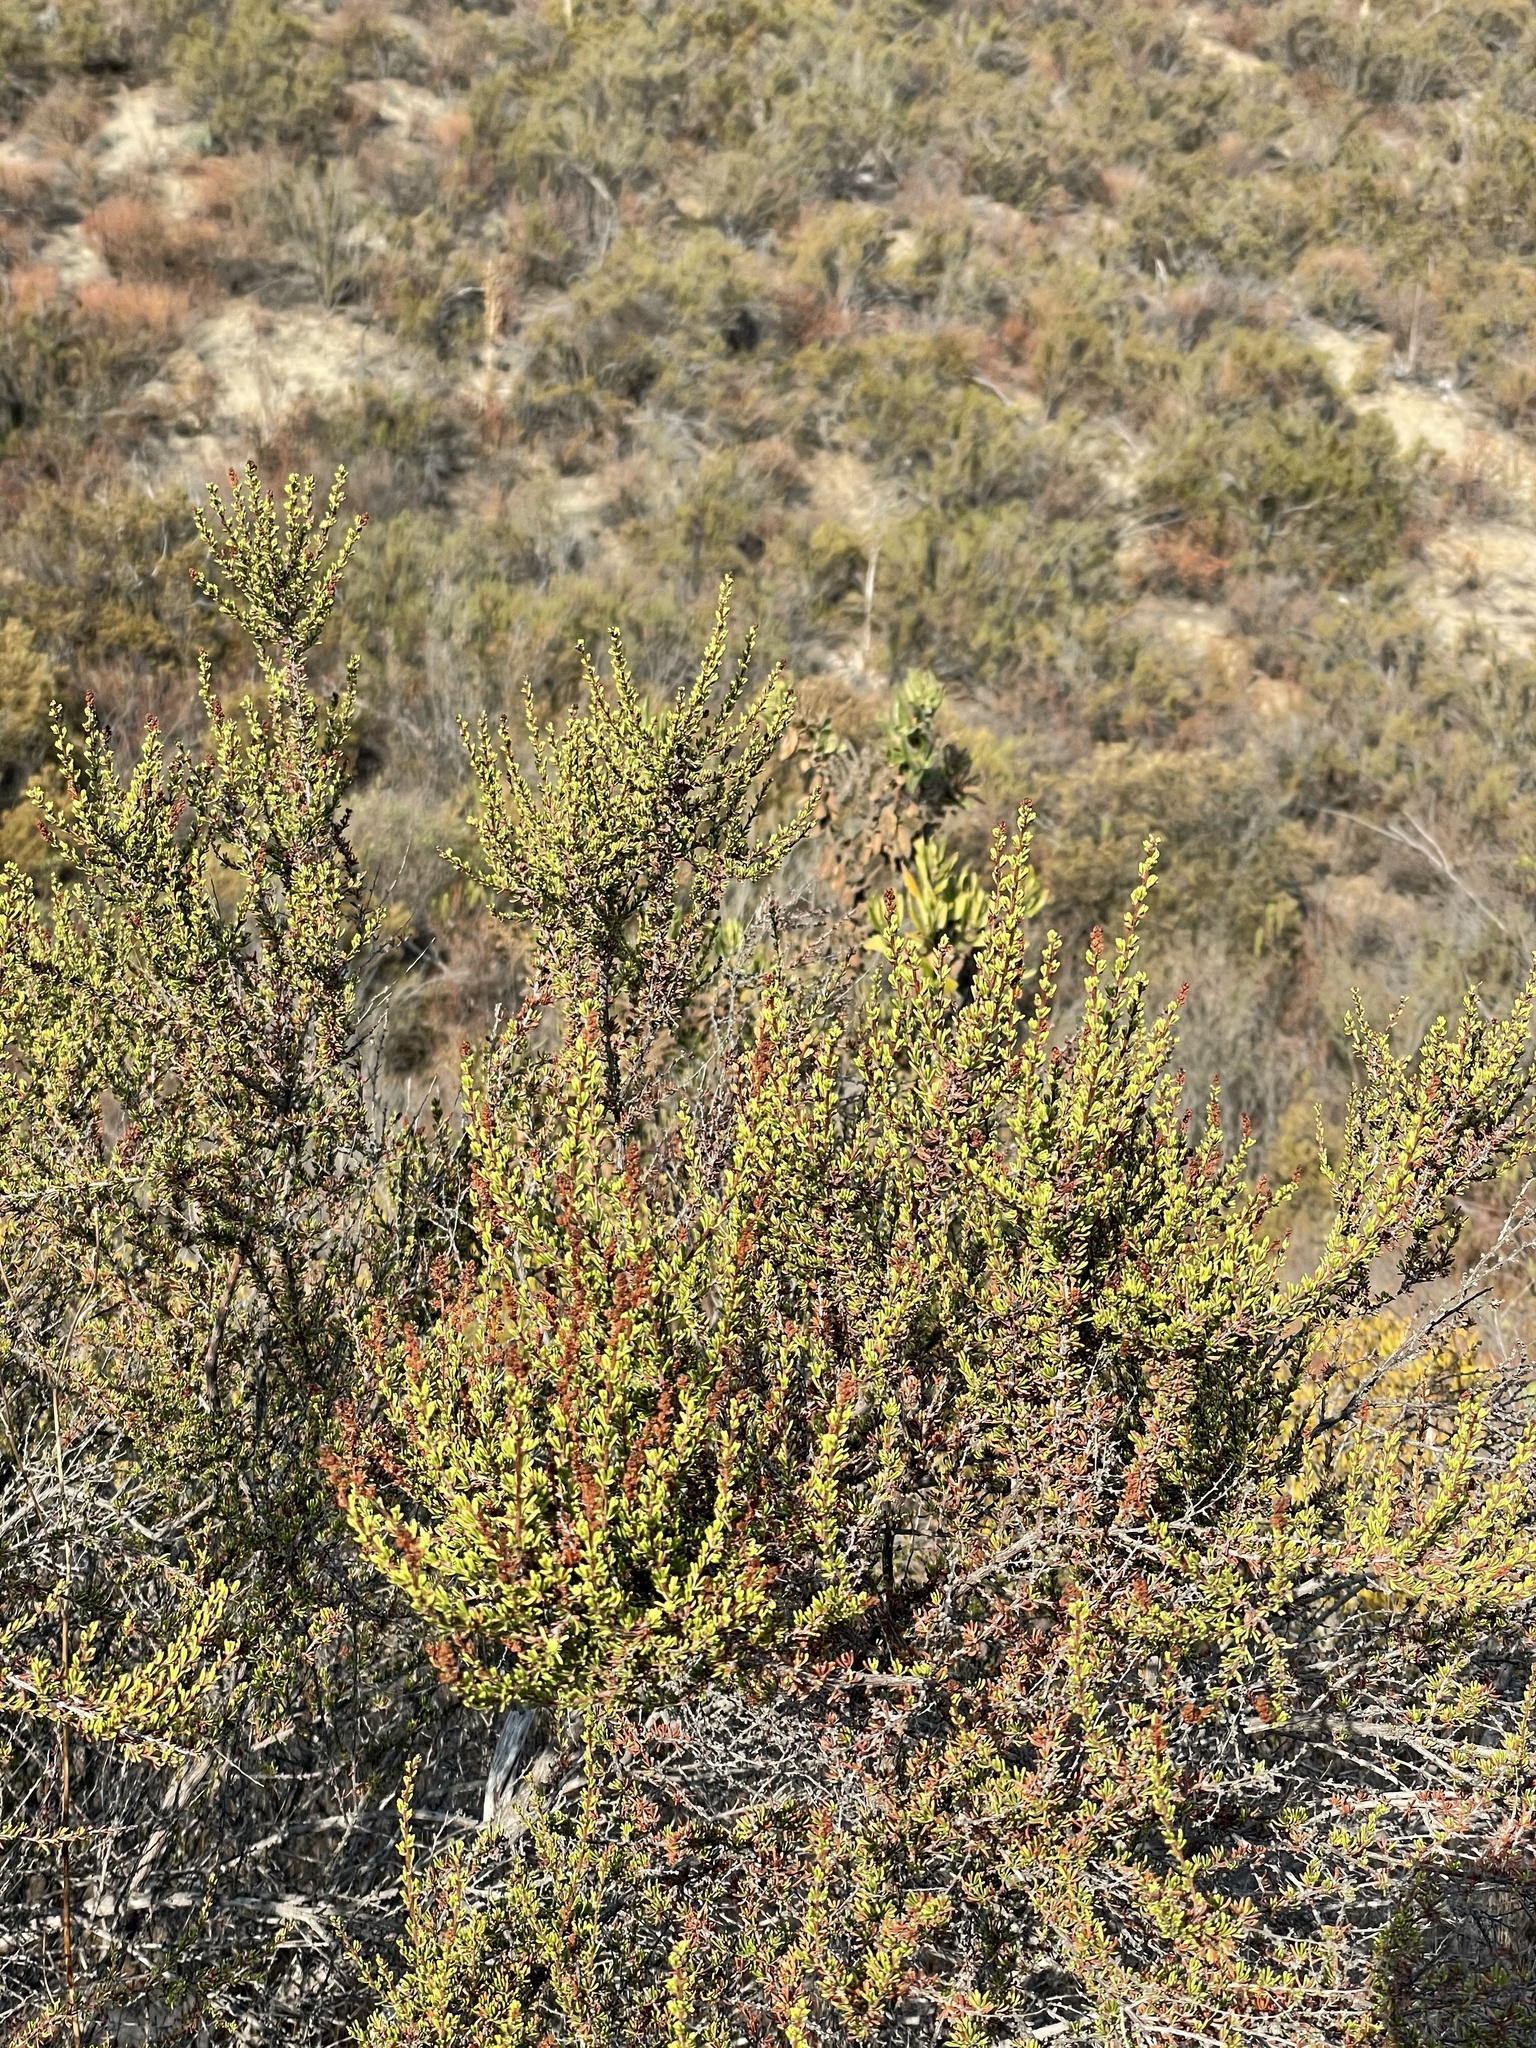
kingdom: Plantae
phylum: Tracheophyta
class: Magnoliopsida
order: Rosales
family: Rosaceae
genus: Adenostoma
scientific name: Adenostoma fasciculatum
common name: Chamise
